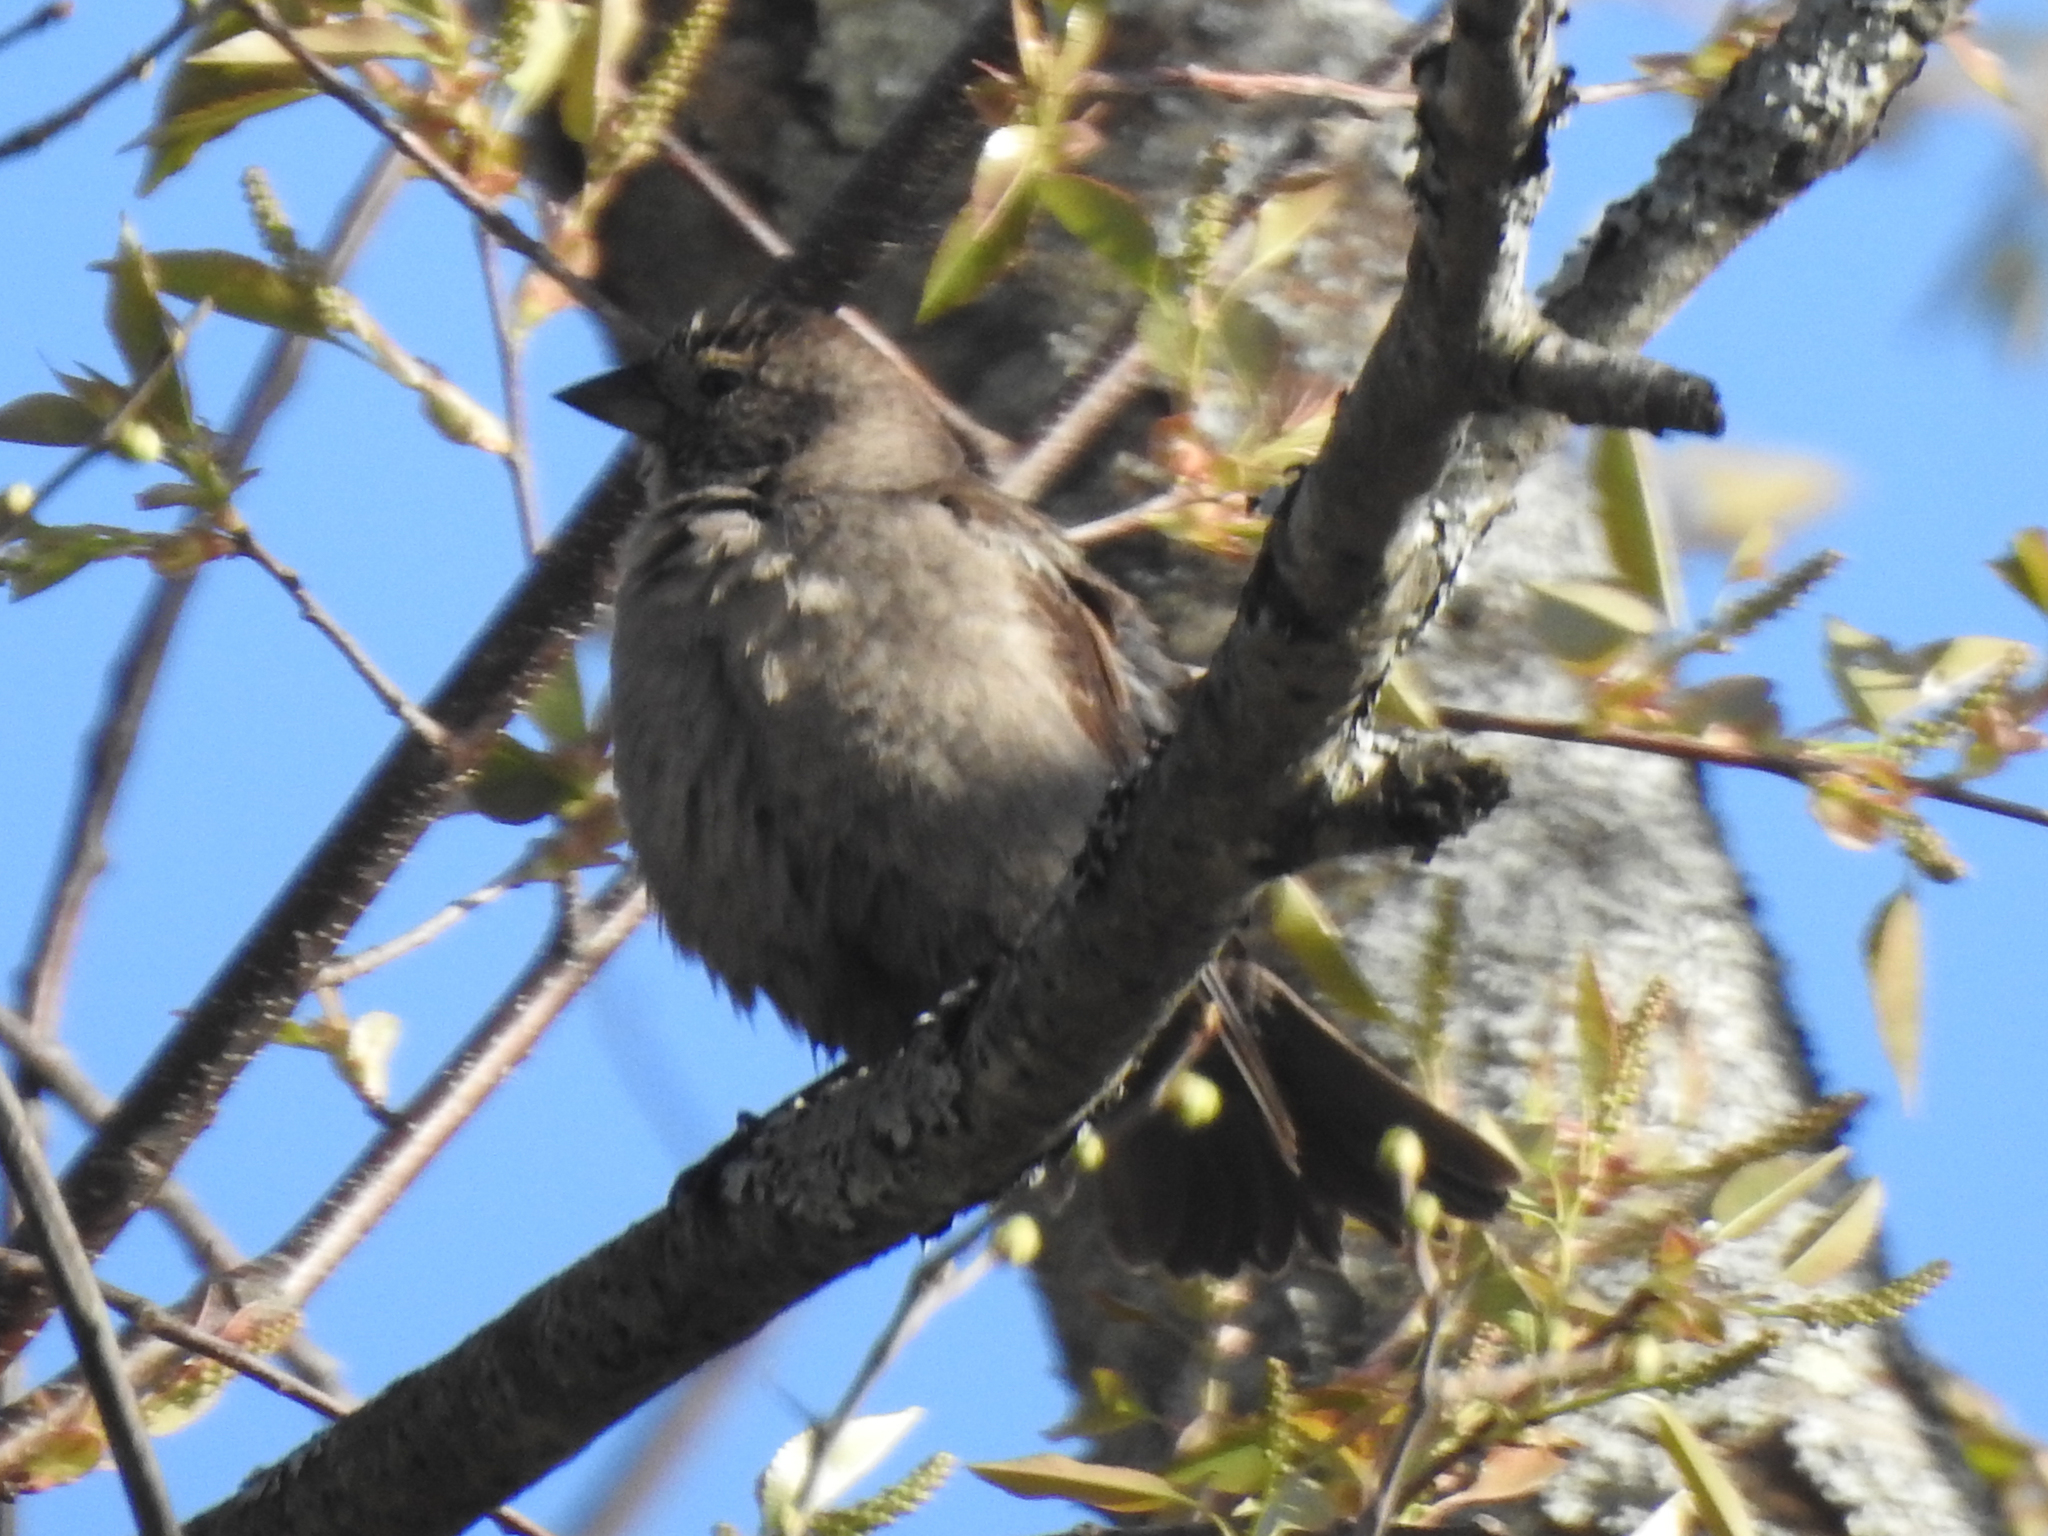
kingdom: Animalia
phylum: Chordata
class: Aves
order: Passeriformes
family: Icteridae
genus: Molothrus
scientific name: Molothrus ater
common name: Brown-headed cowbird
